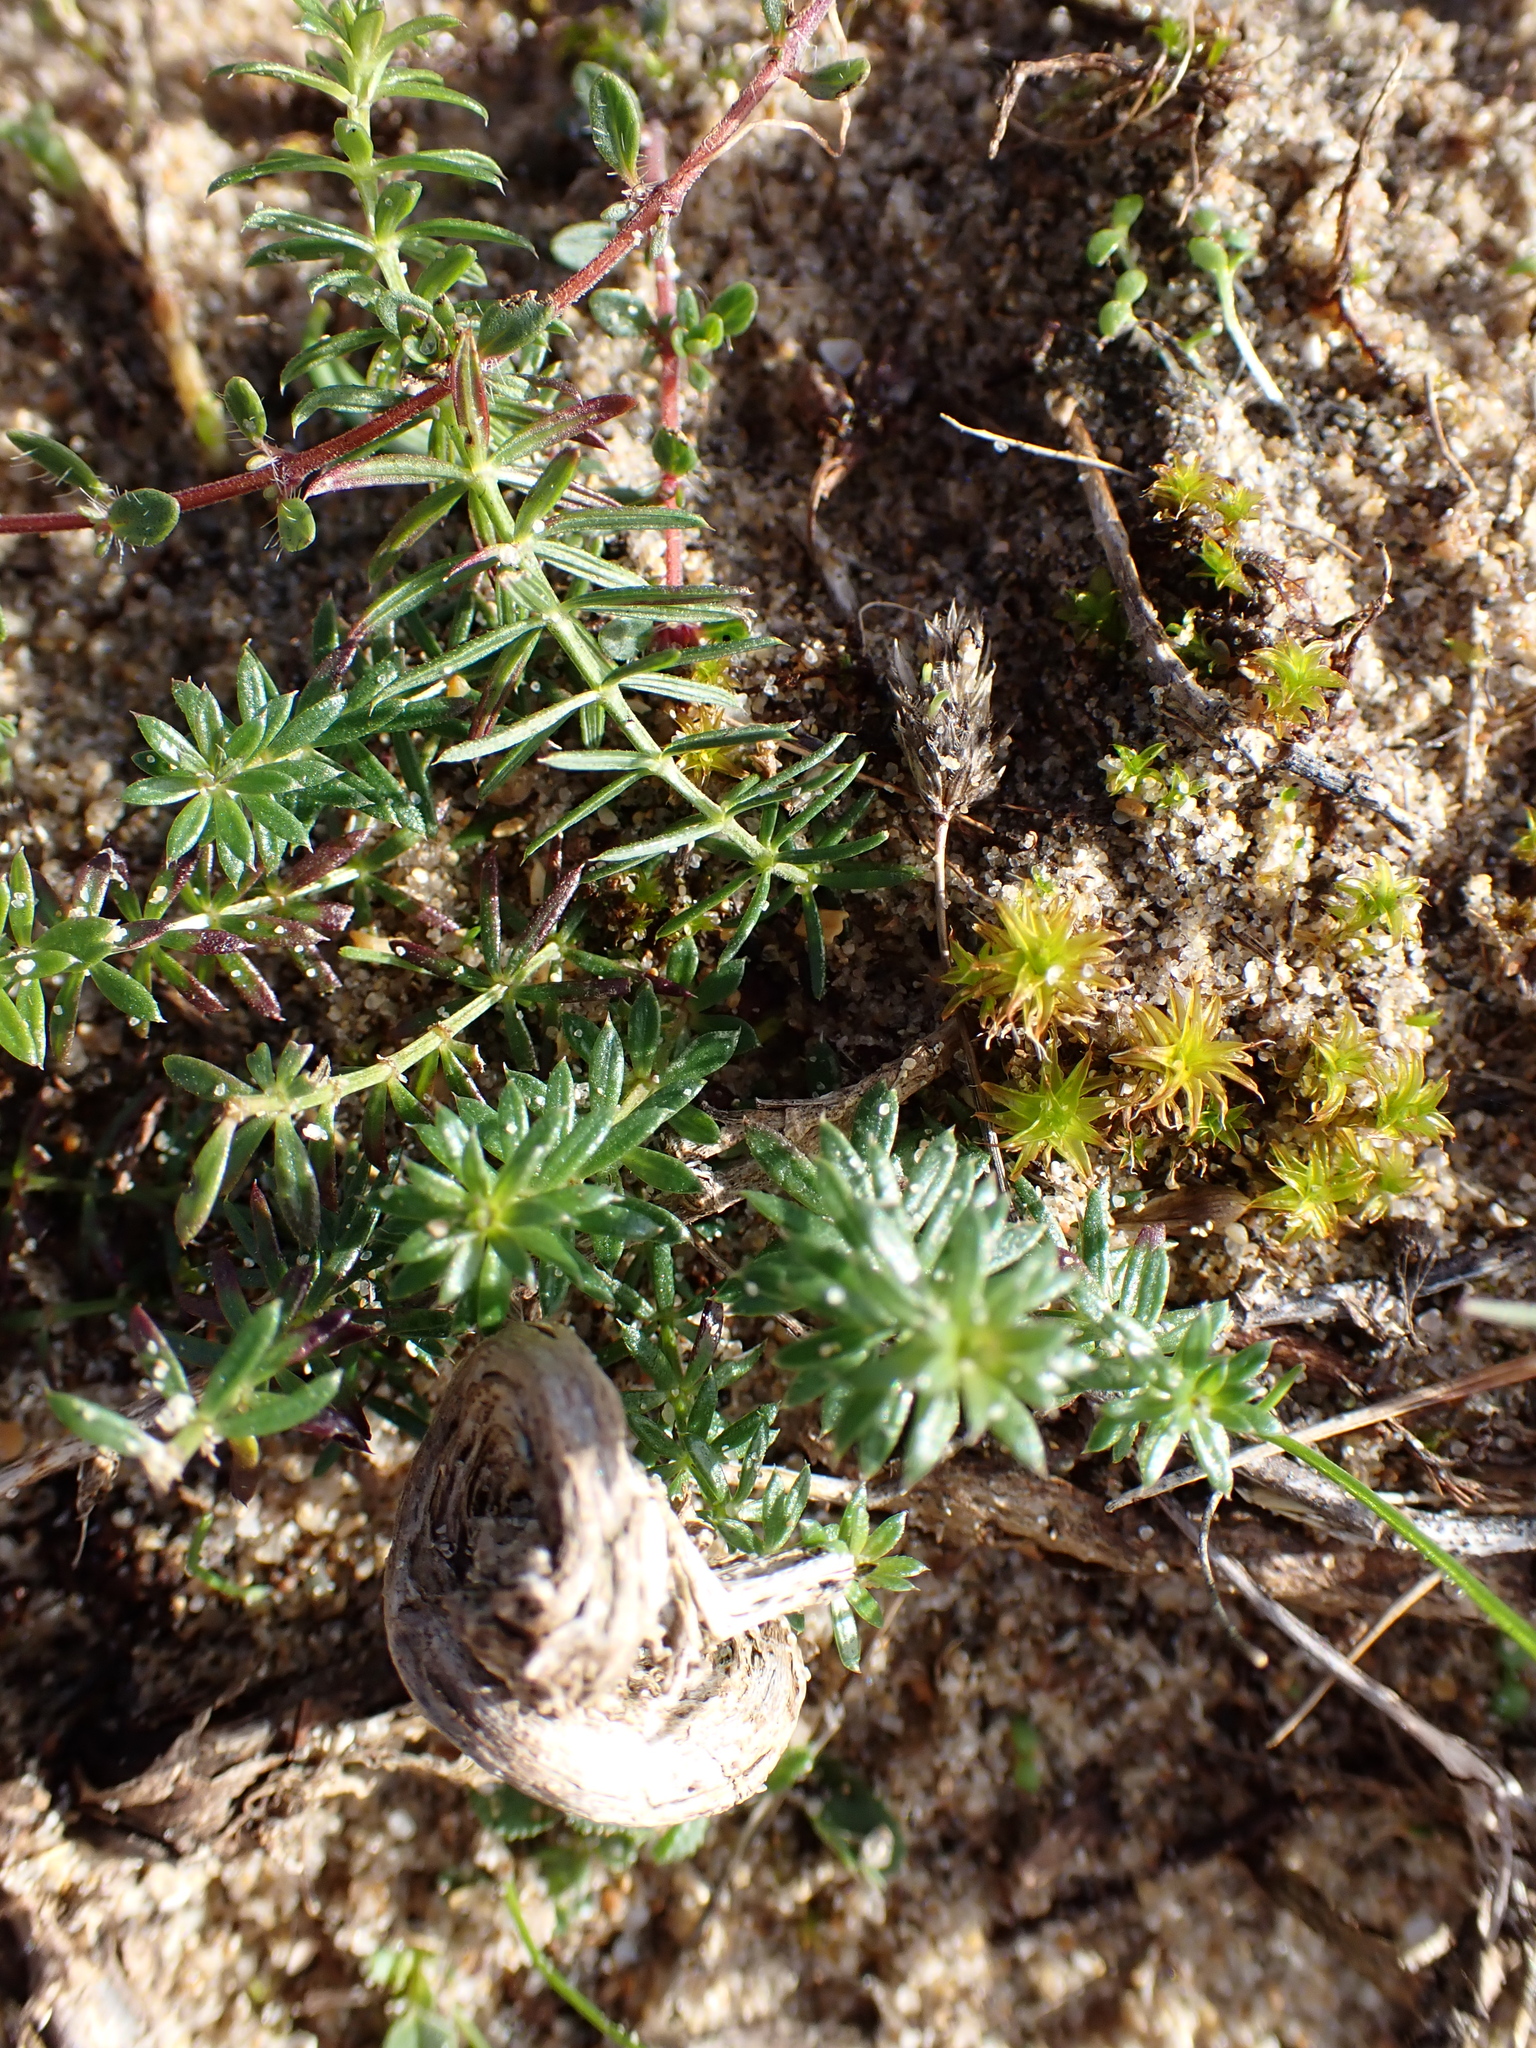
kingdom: Plantae
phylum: Tracheophyta
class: Magnoliopsida
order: Gentianales
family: Rubiaceae
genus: Galium
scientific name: Galium arenarium
